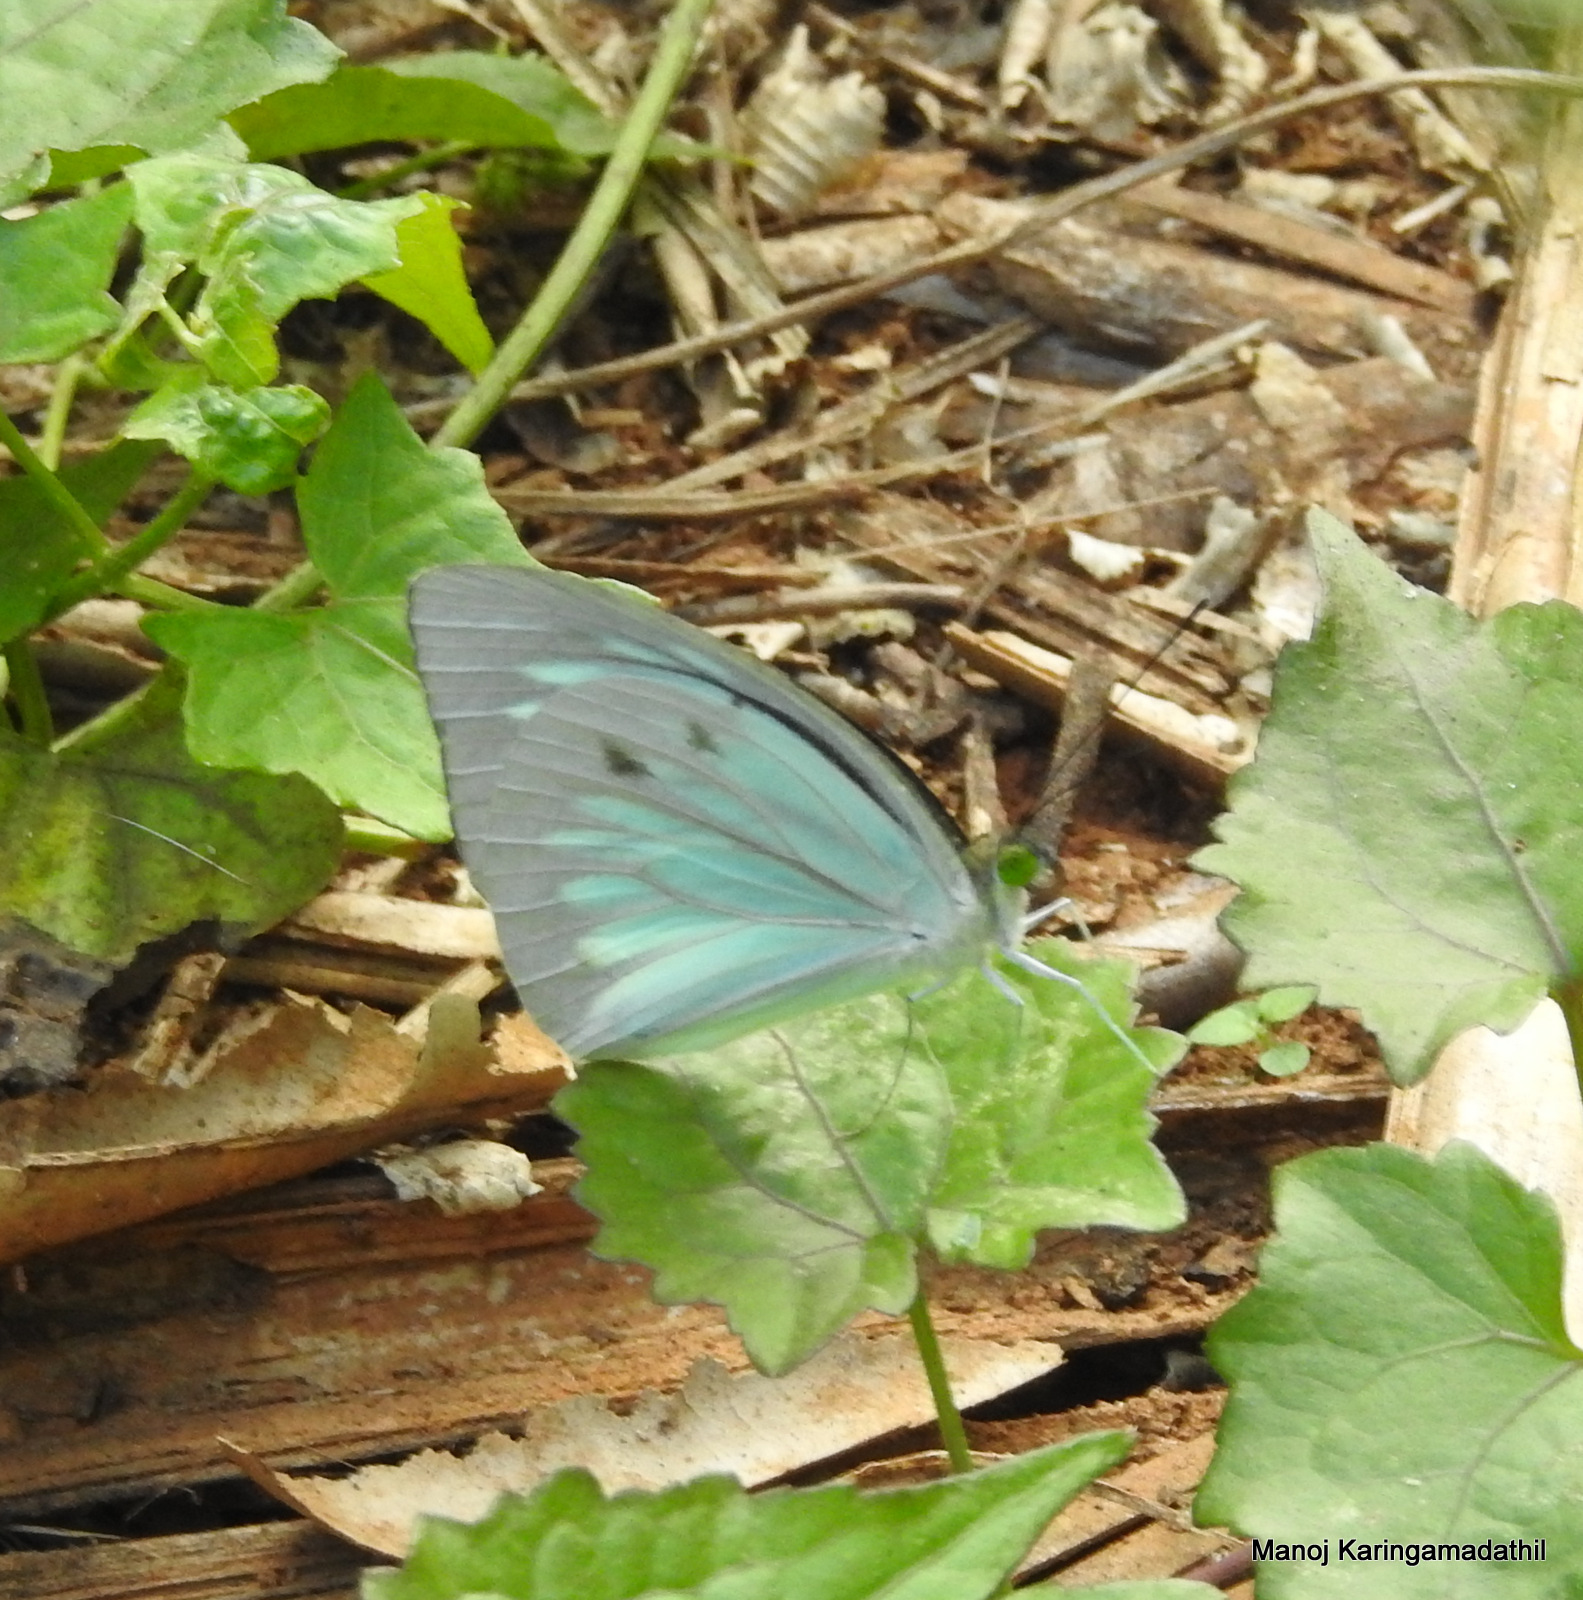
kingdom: Animalia
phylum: Arthropoda
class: Insecta
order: Lepidoptera
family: Pieridae
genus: Pareronia
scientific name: Pareronia hippia
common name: Indian wanderer
